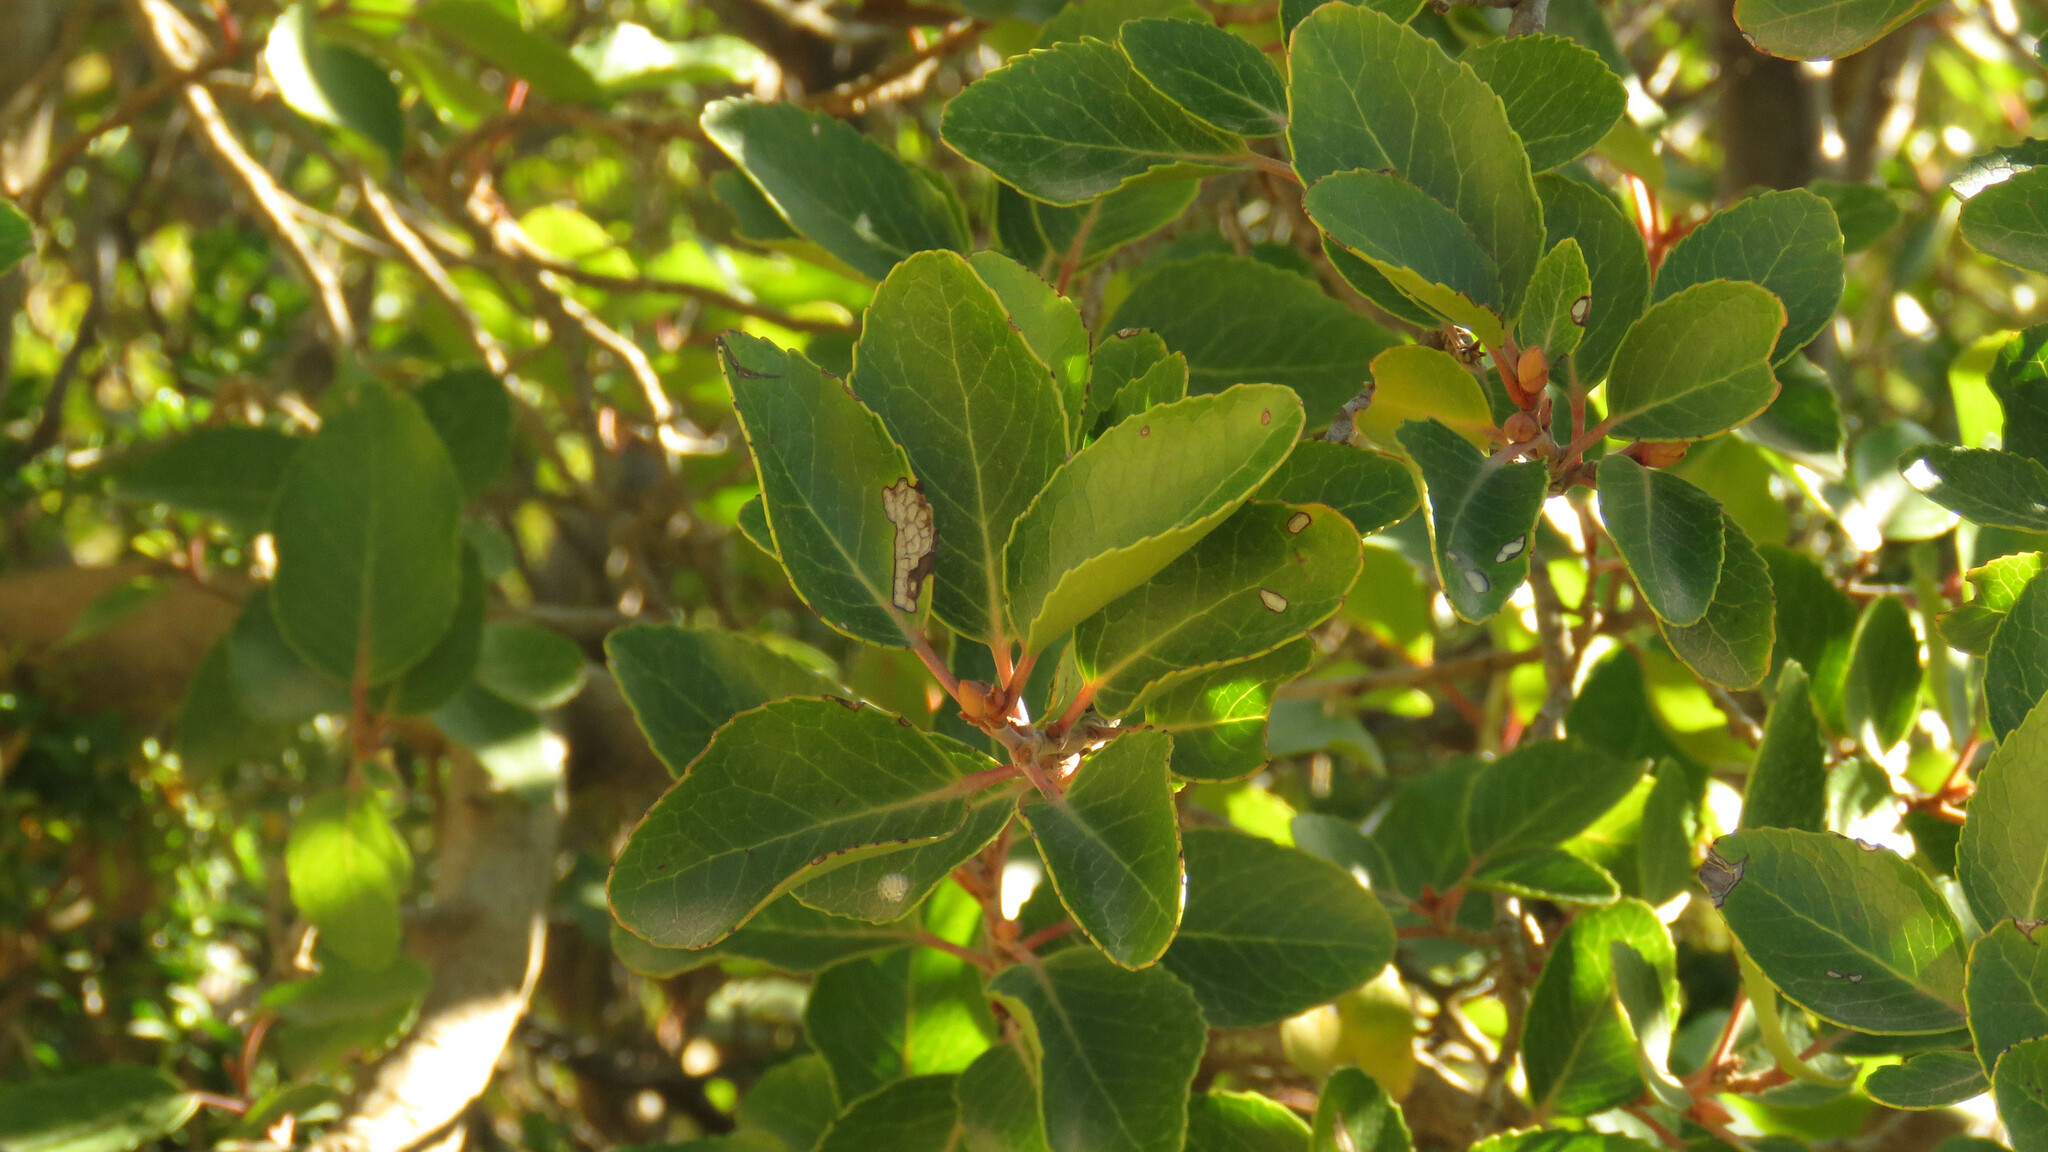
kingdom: Plantae
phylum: Tracheophyta
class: Magnoliopsida
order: Proteales
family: Proteaceae
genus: Lomatia
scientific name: Lomatia hirsuta
